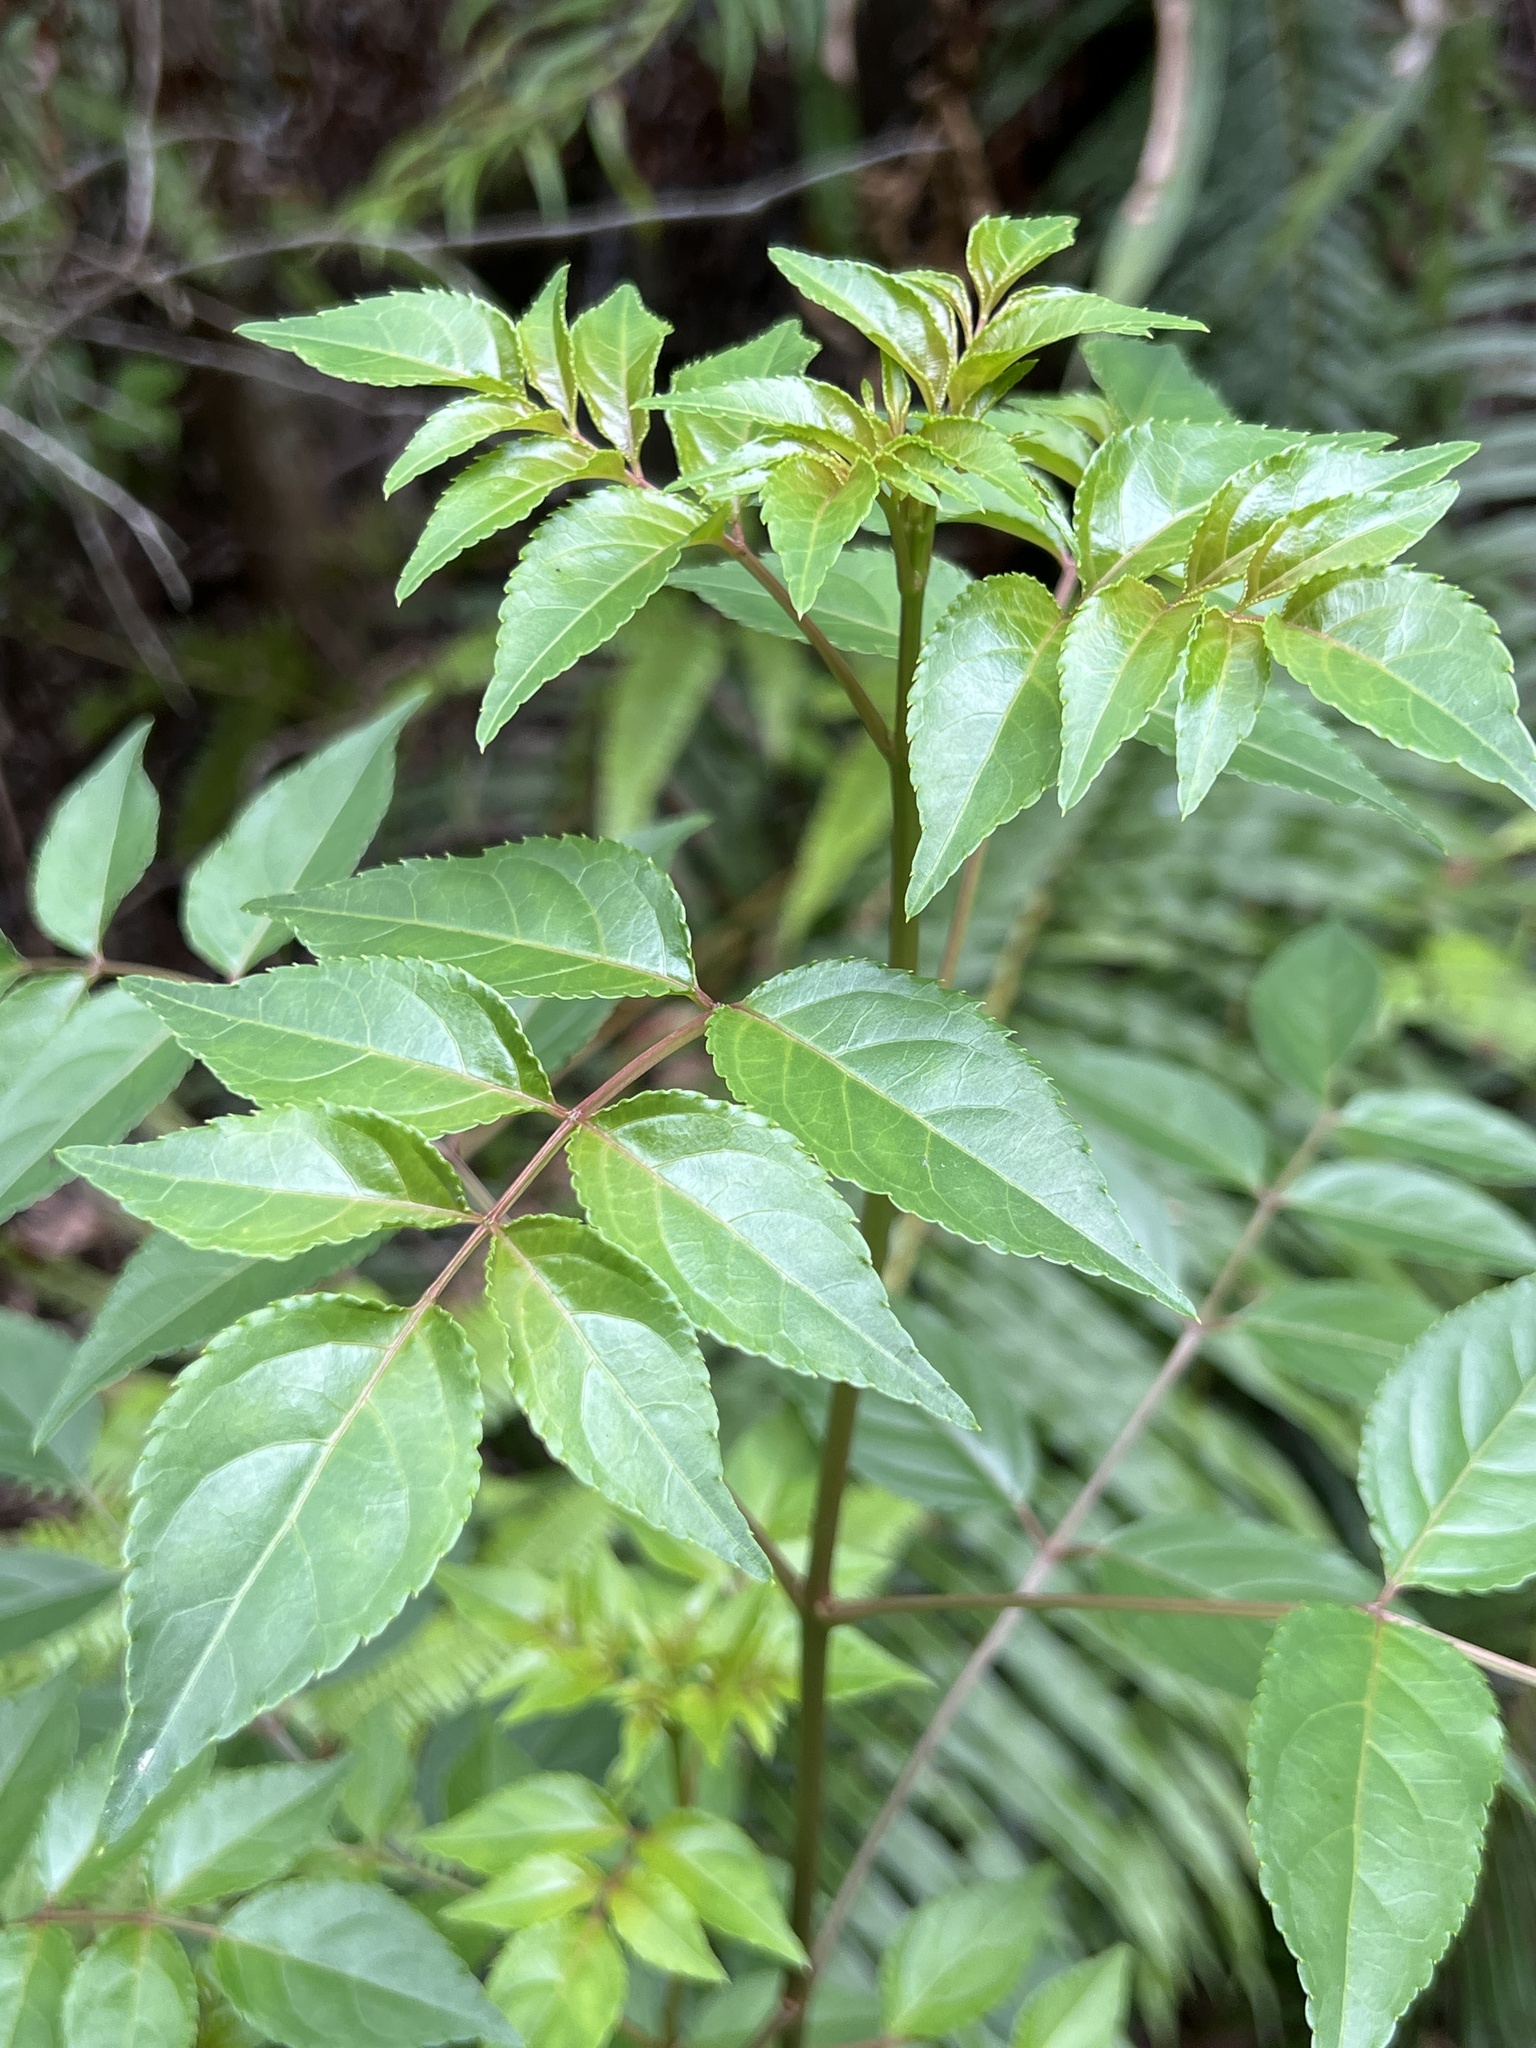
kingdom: Plantae
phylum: Tracheophyta
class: Magnoliopsida
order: Crossosomatales
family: Staphyleaceae
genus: Staphylea
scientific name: Staphylea japonica
